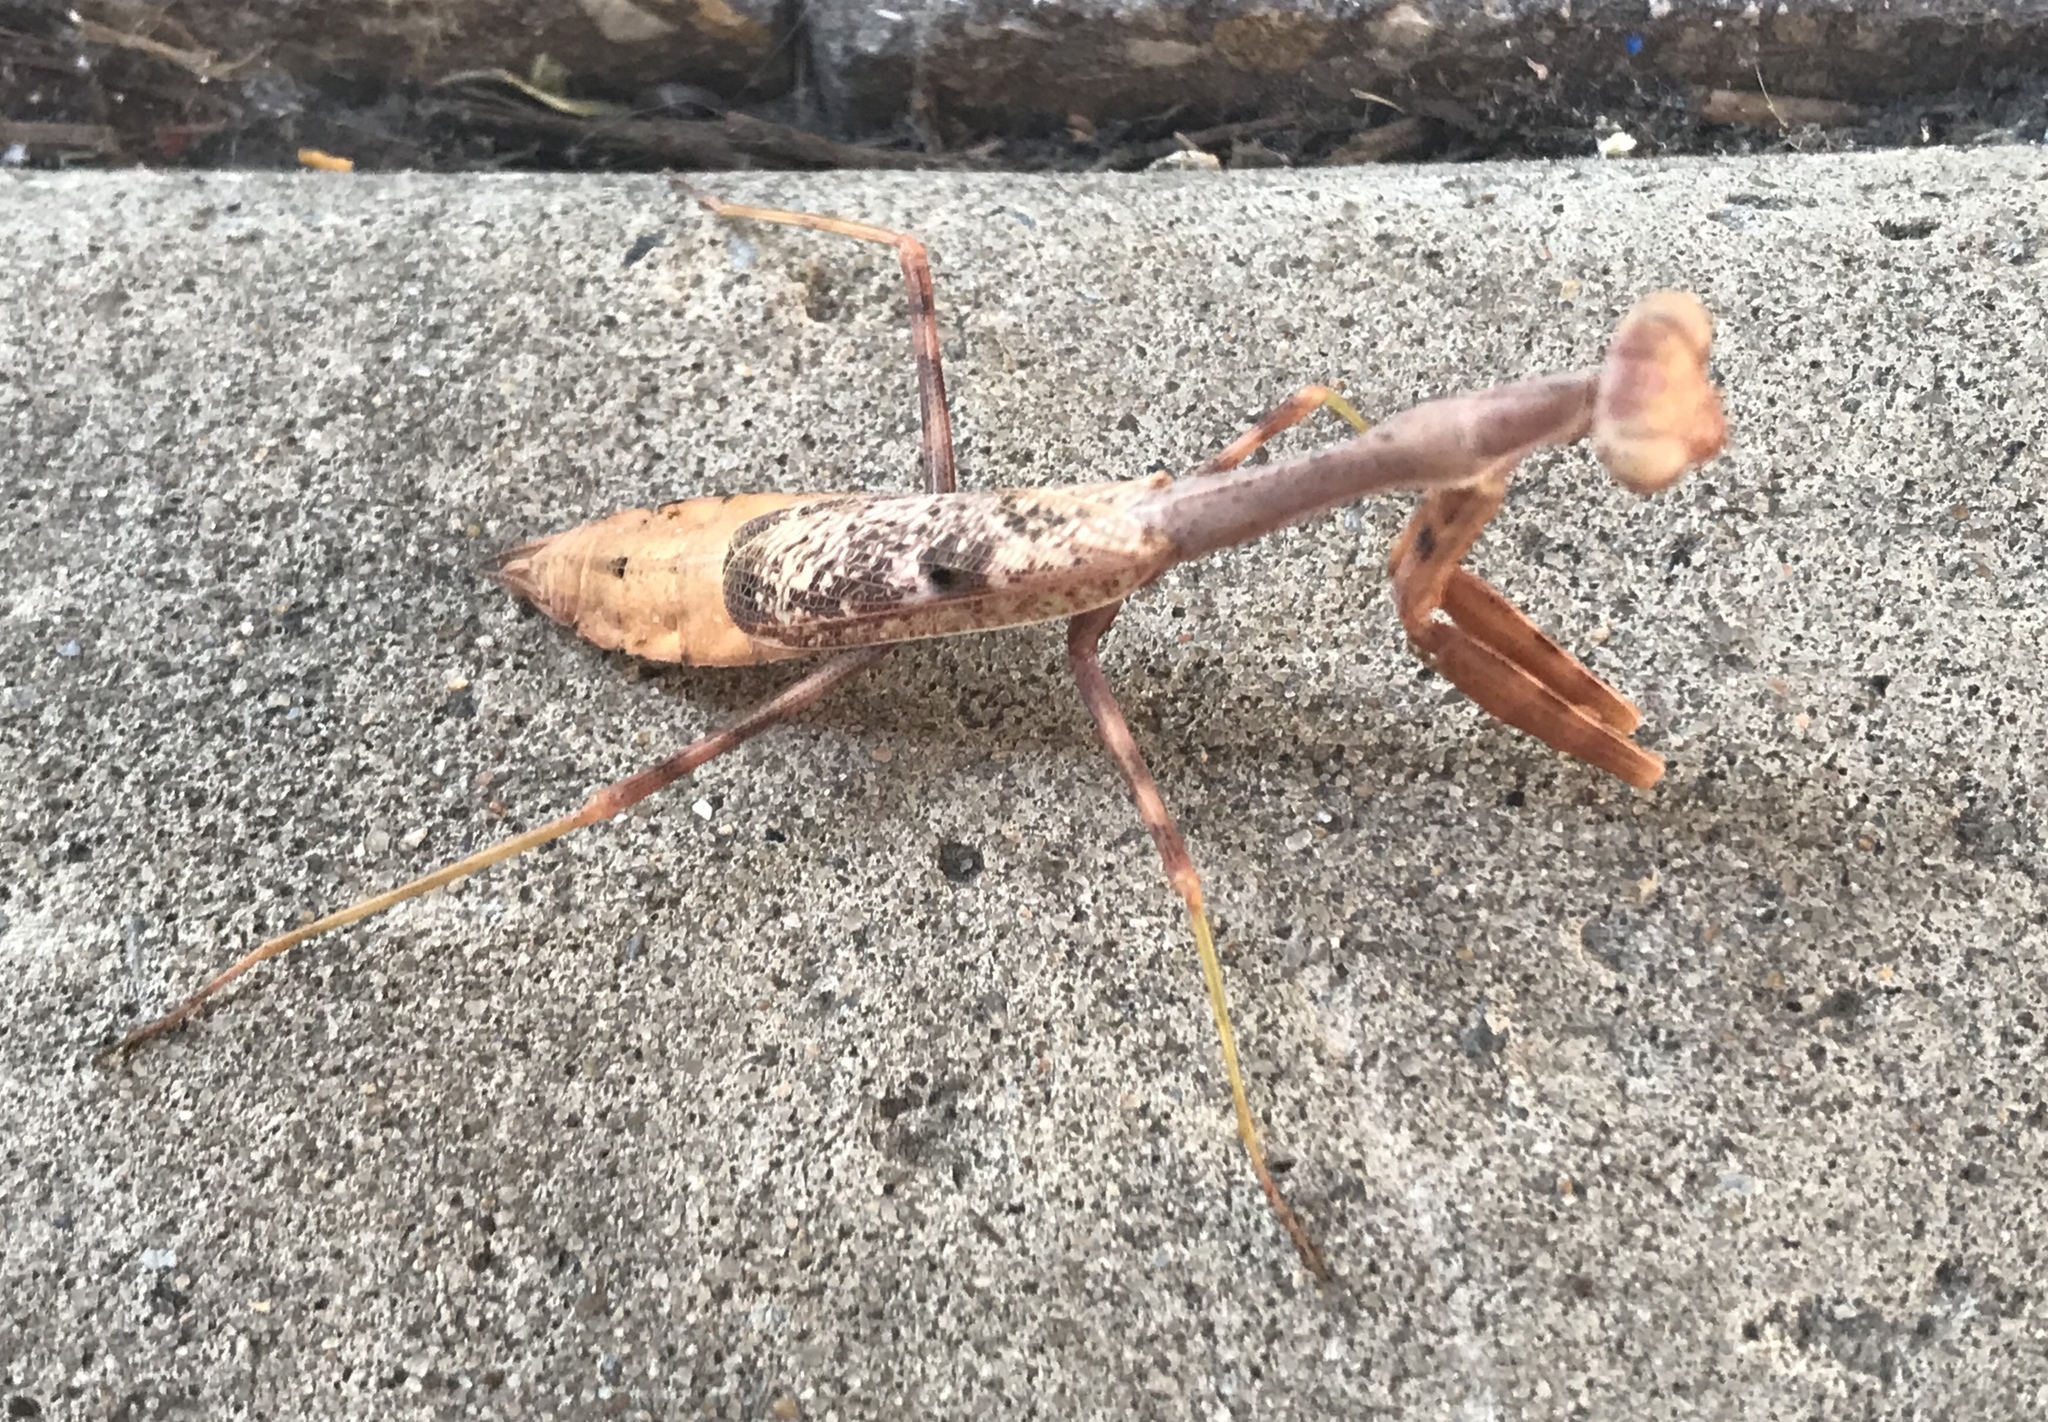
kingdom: Animalia
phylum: Arthropoda
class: Insecta
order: Mantodea
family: Mantidae
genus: Stagmomantis
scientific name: Stagmomantis carolina
